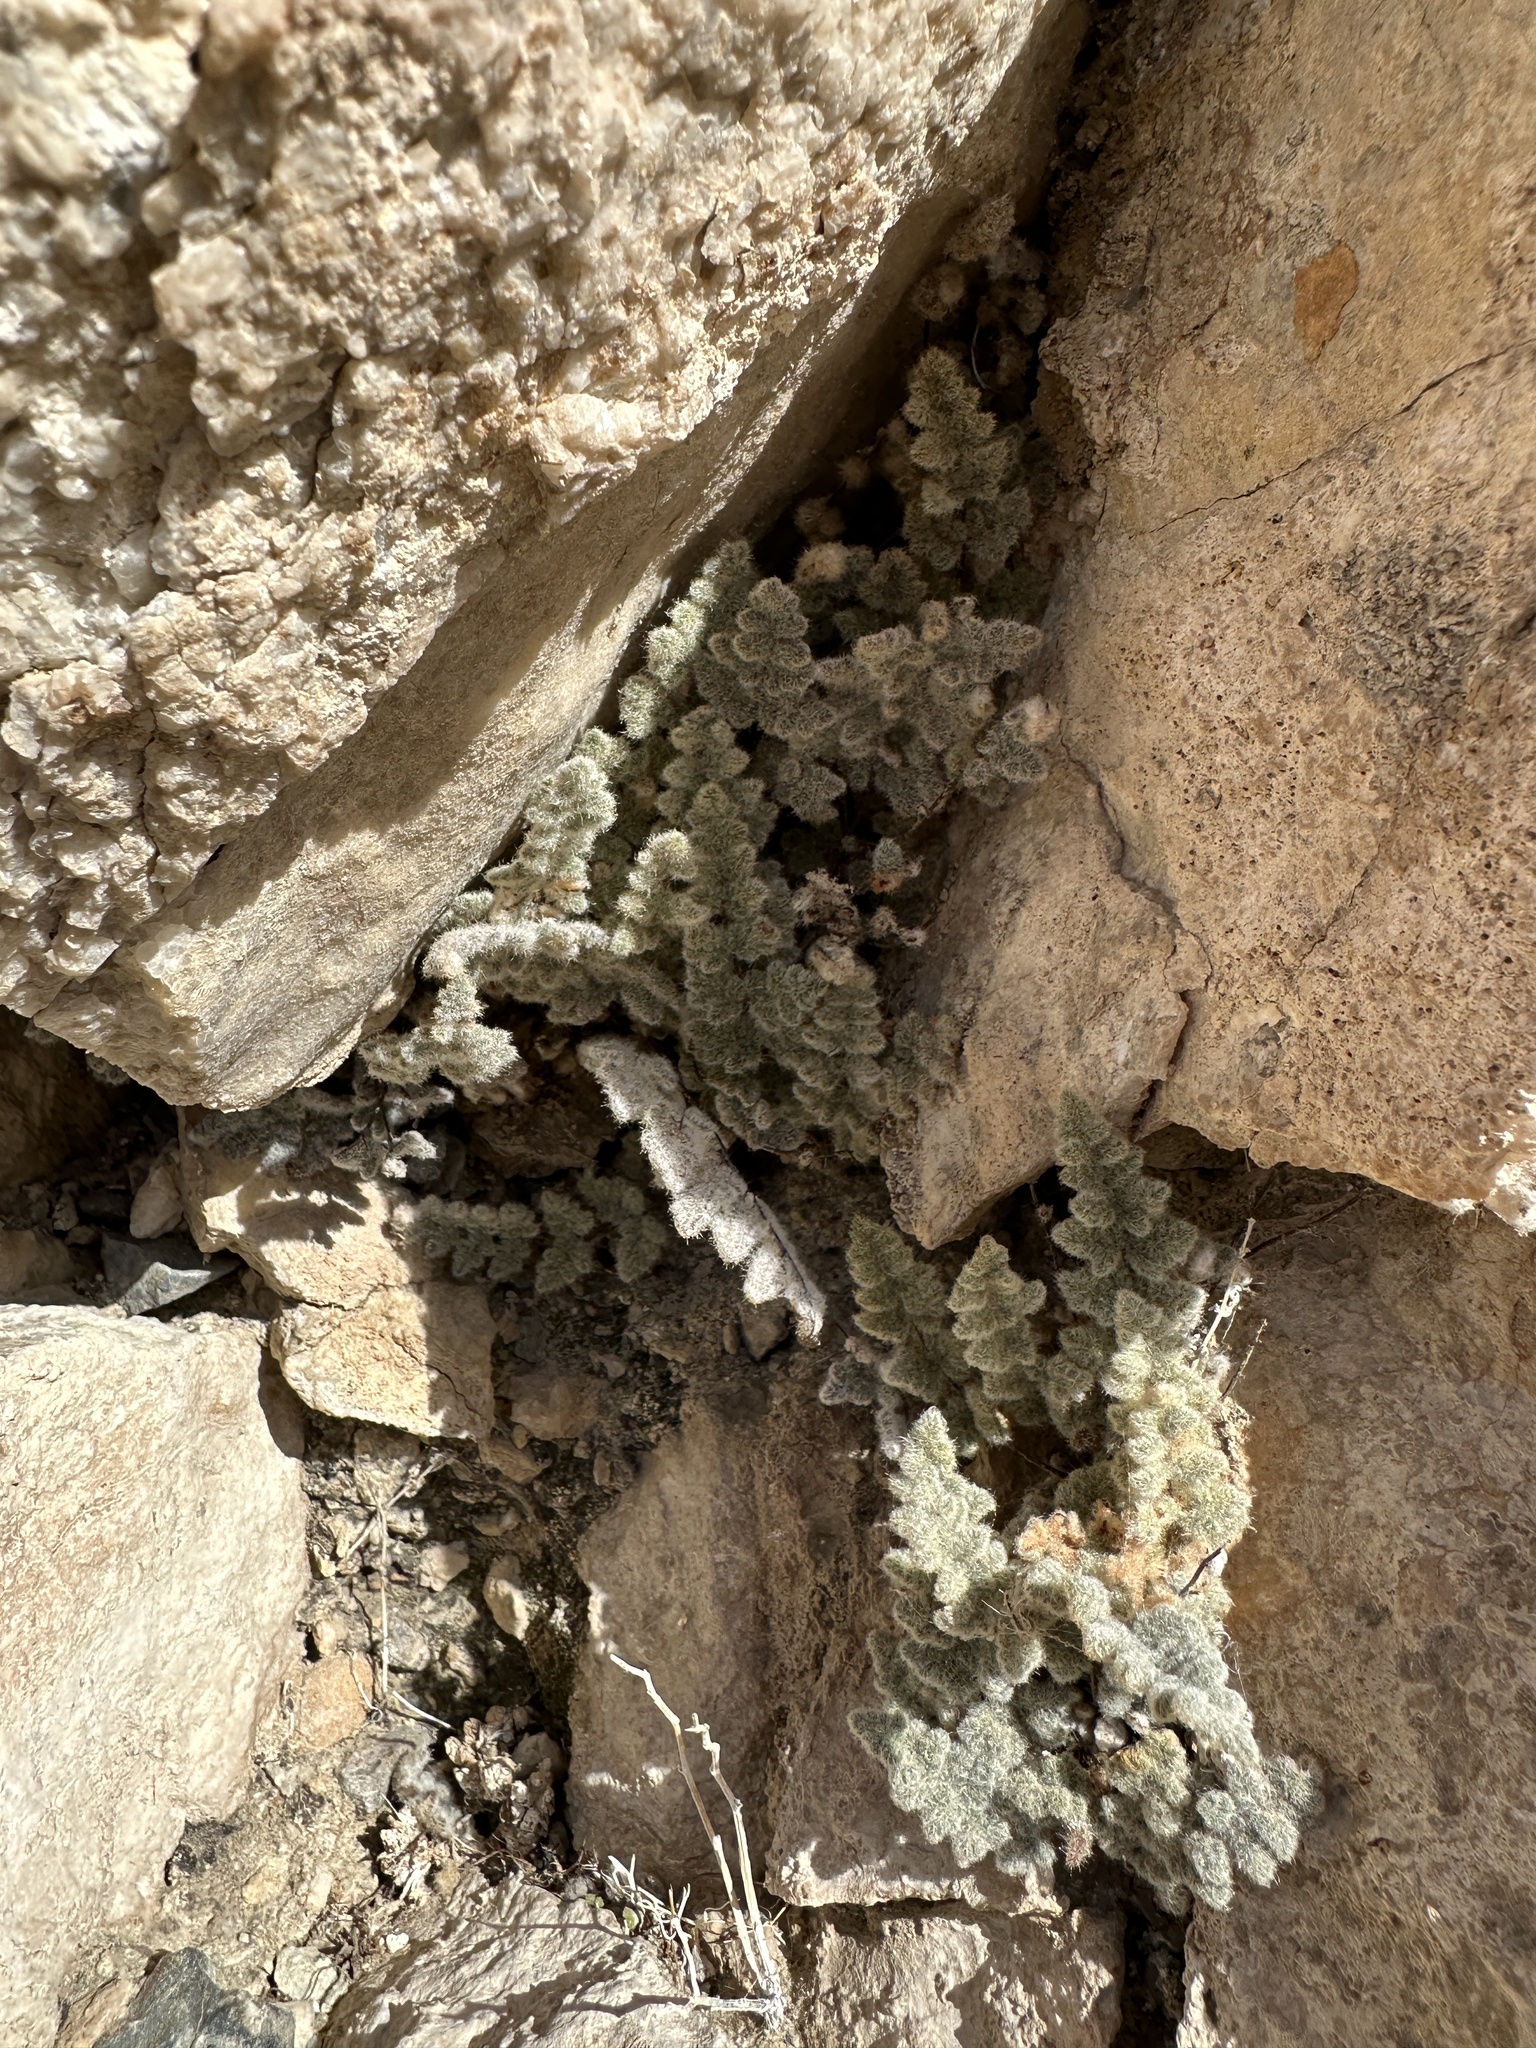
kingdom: Plantae
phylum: Tracheophyta
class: Polypodiopsida
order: Polypodiales
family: Pteridaceae
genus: Myriopteris
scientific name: Myriopteris parryi
